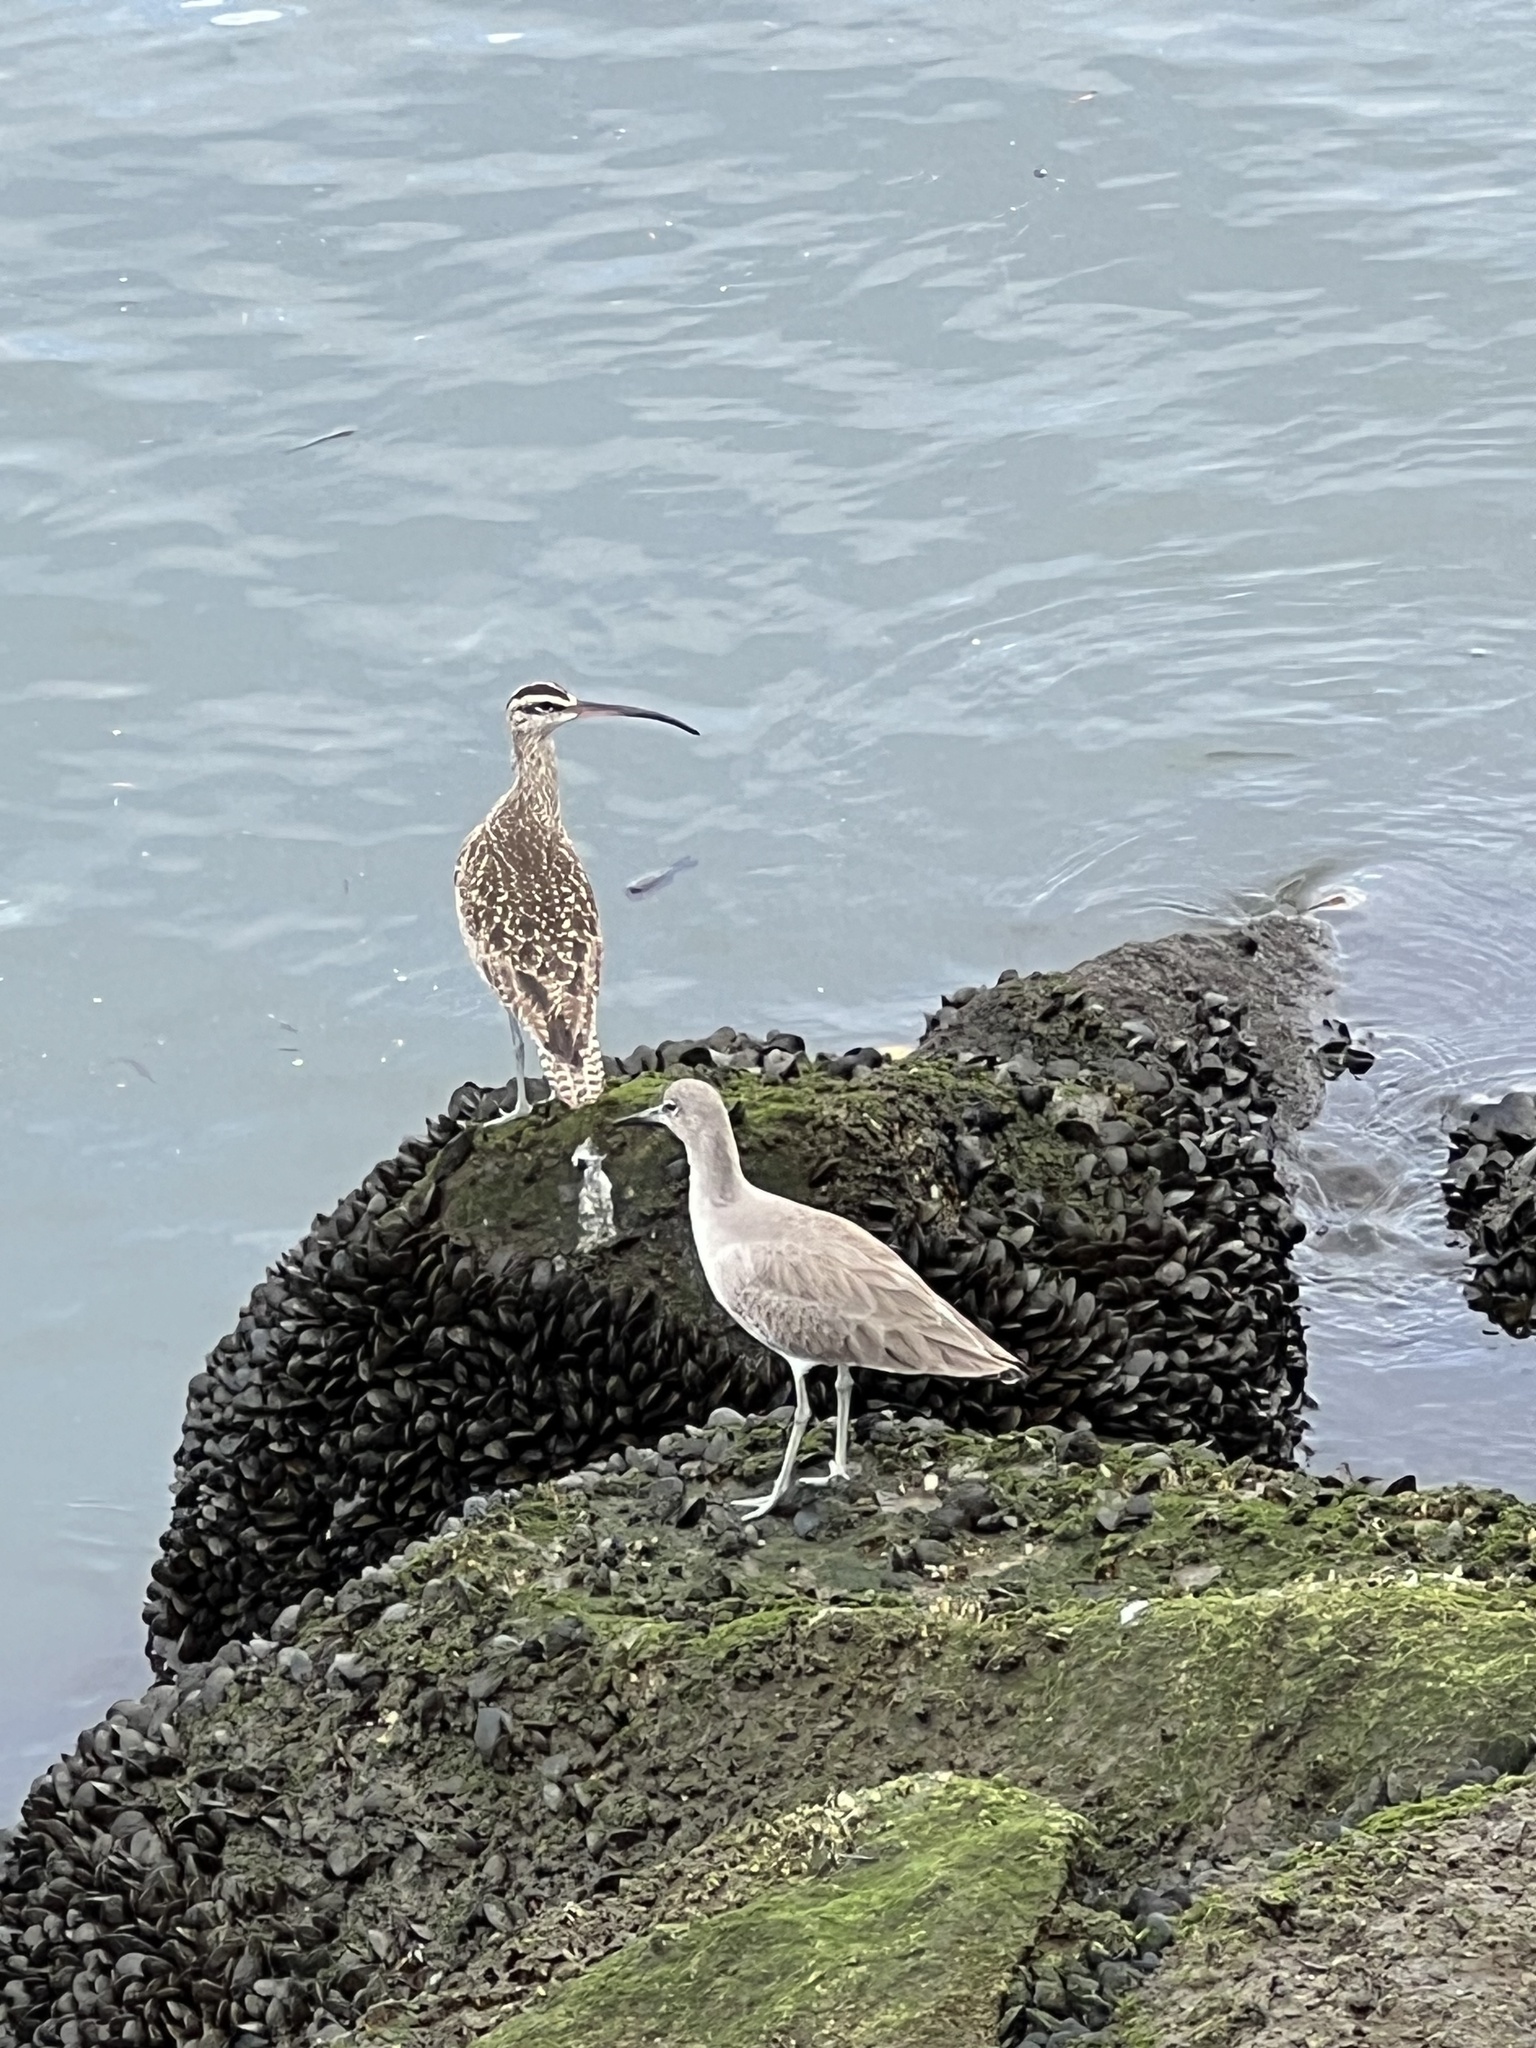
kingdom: Animalia
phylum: Chordata
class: Aves
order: Charadriiformes
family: Scolopacidae
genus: Tringa
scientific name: Tringa semipalmata
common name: Willet
